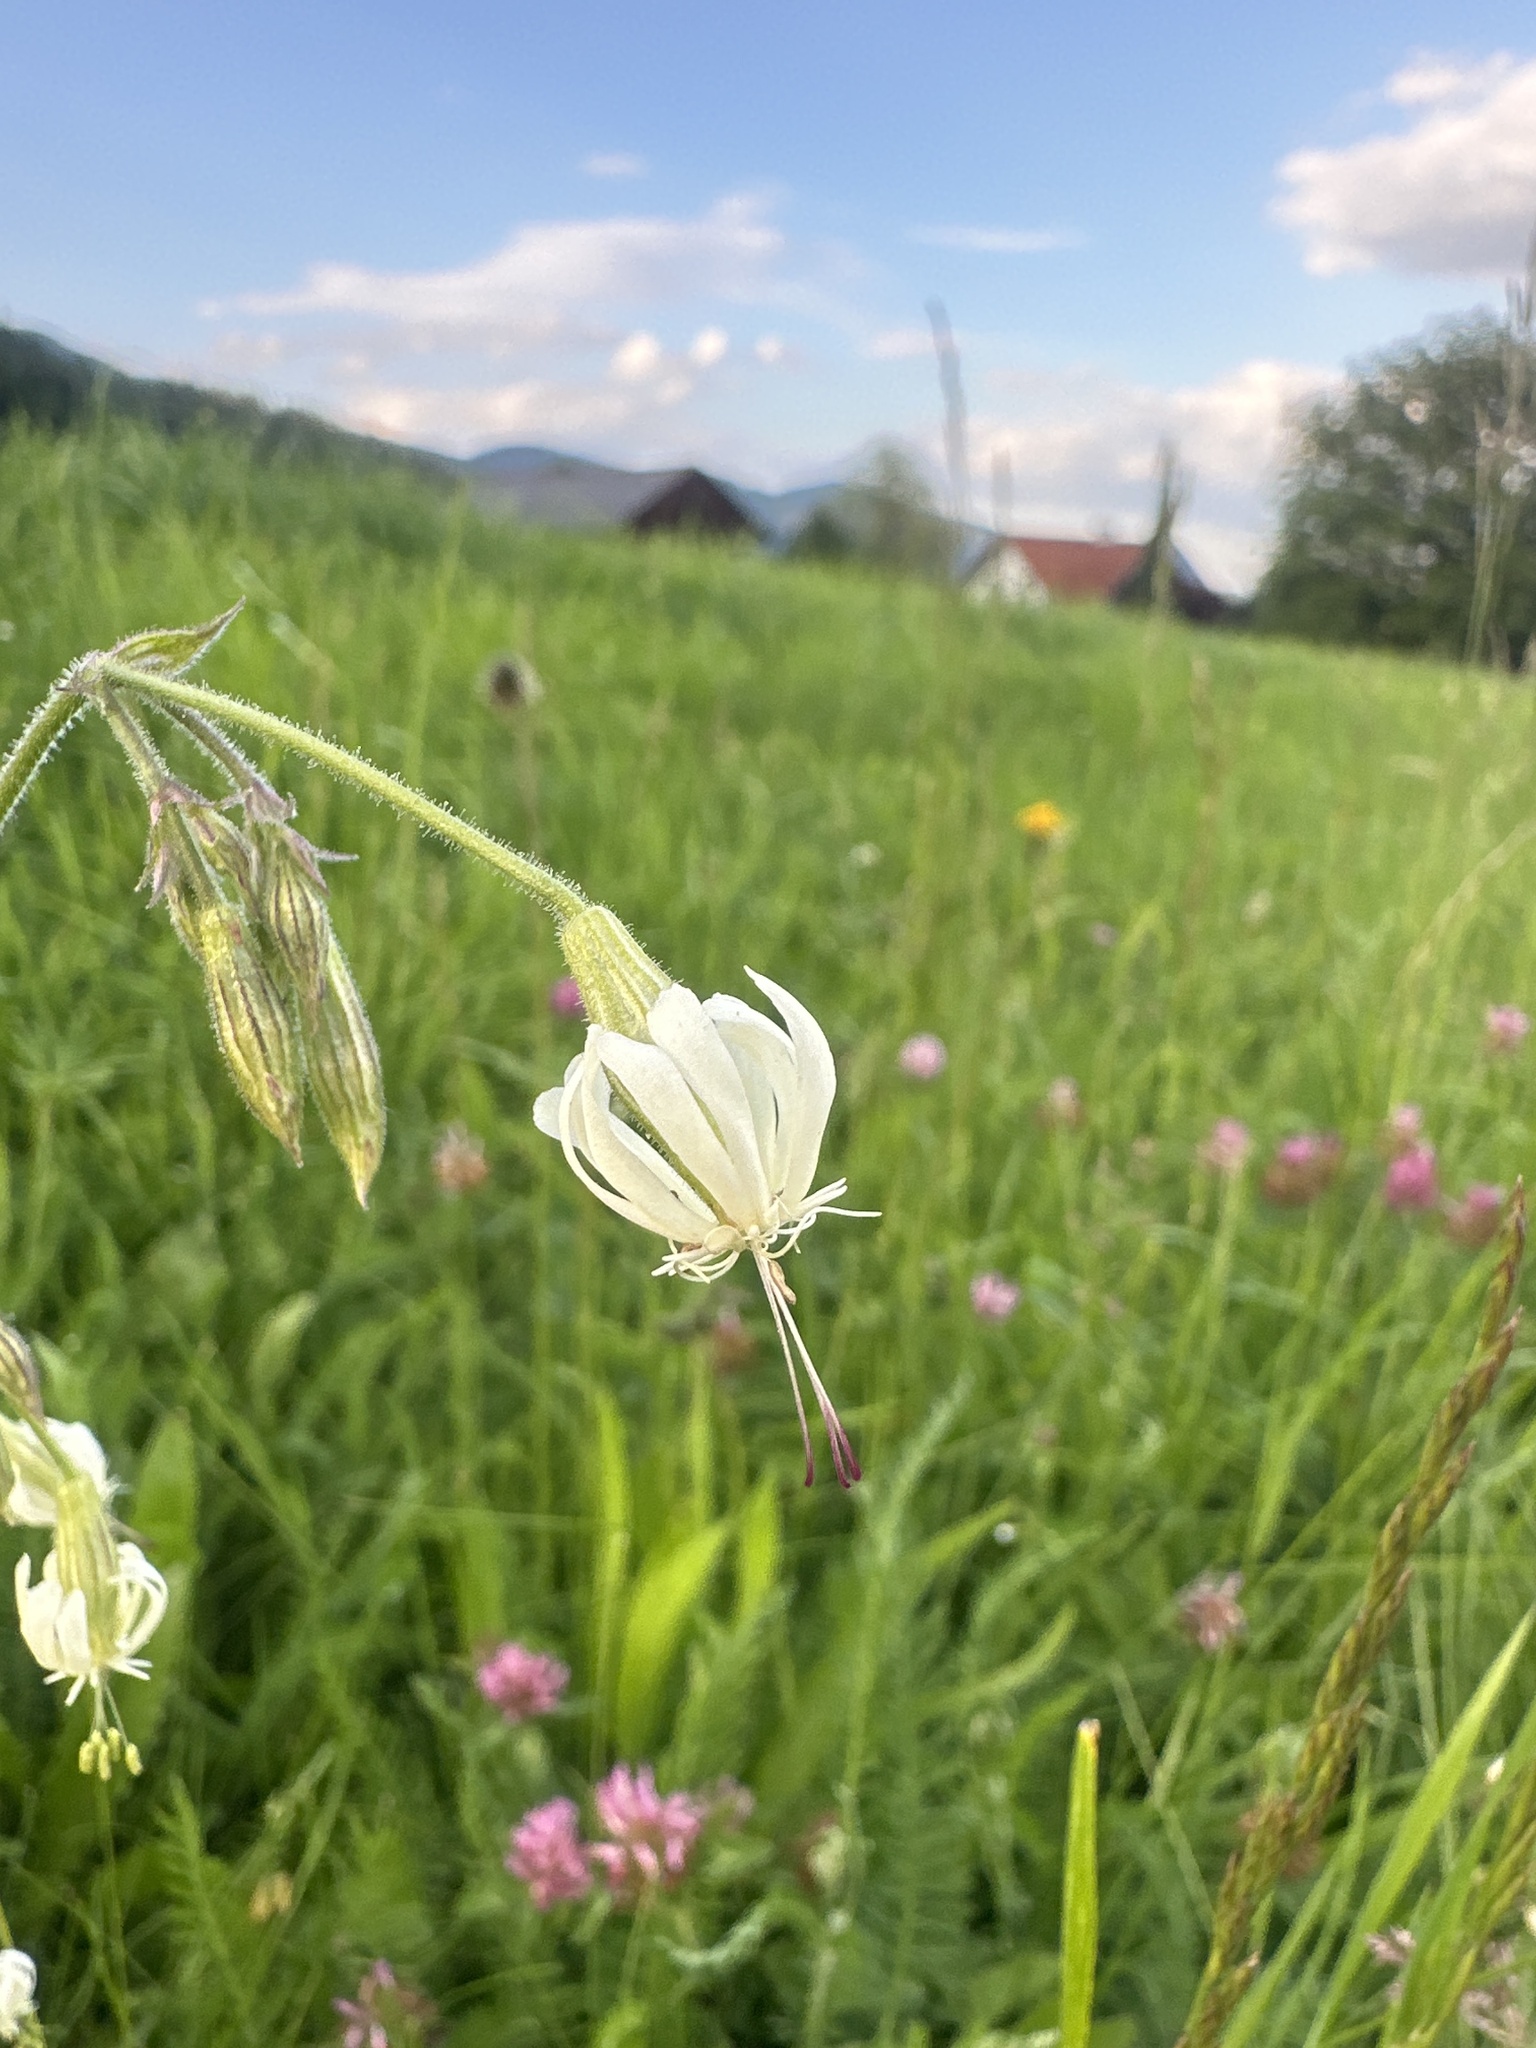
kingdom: Plantae
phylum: Tracheophyta
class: Magnoliopsida
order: Caryophyllales
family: Caryophyllaceae
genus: Silene
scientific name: Silene nutans
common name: Nottingham catchfly
